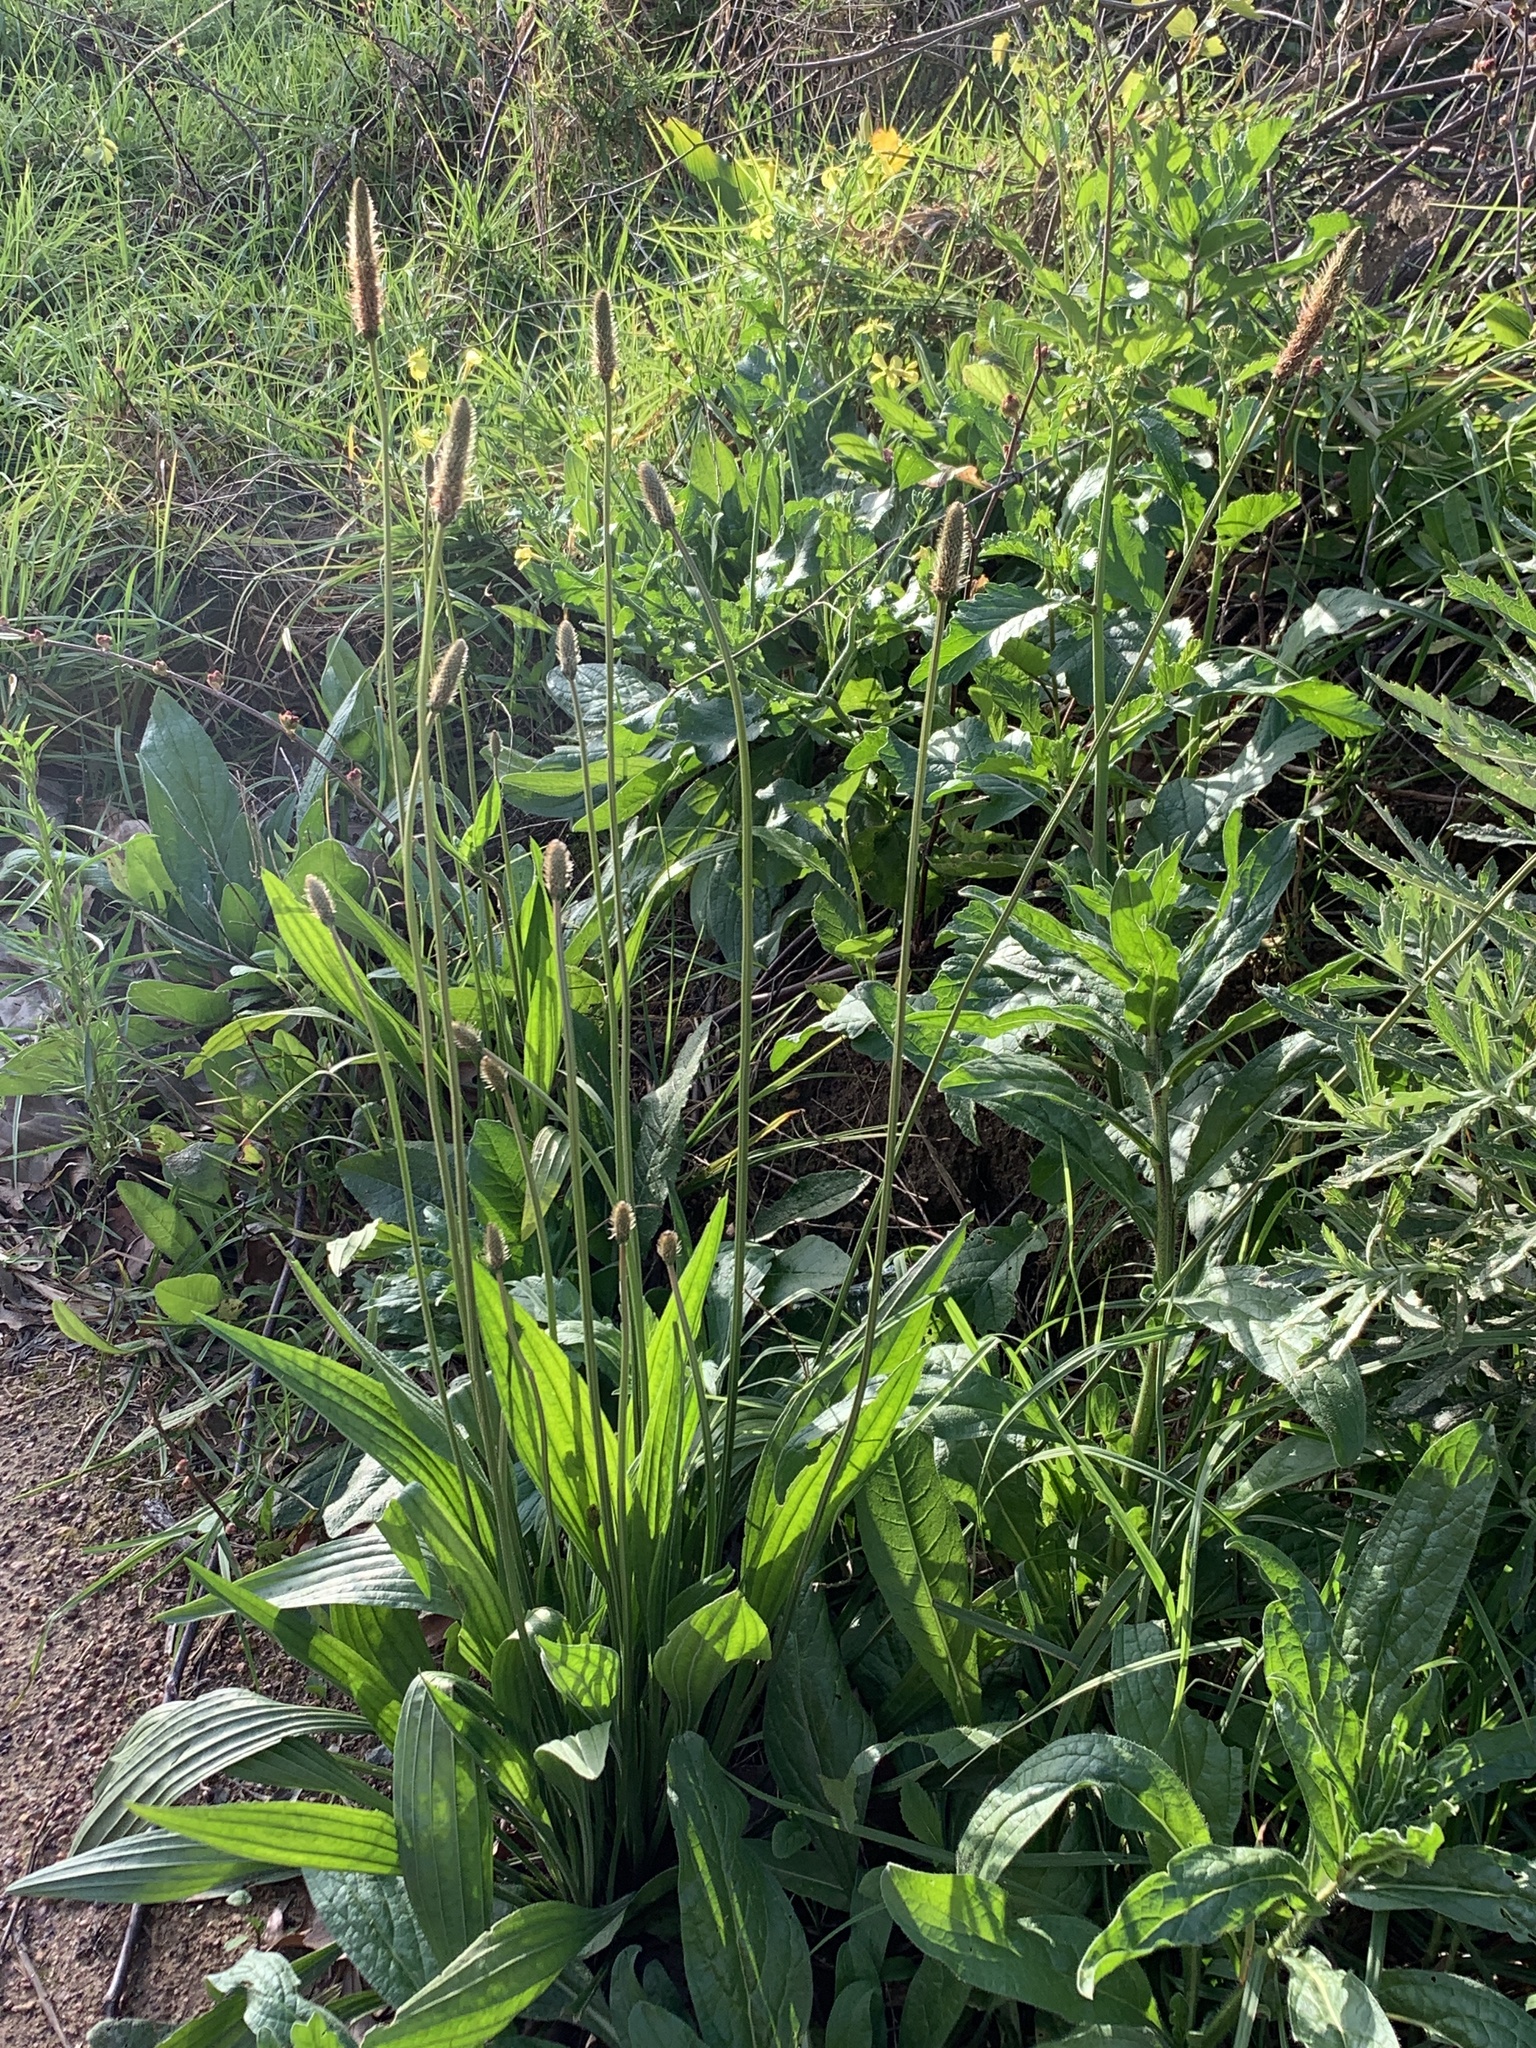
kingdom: Plantae
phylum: Tracheophyta
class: Magnoliopsida
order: Lamiales
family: Plantaginaceae
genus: Plantago
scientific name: Plantago lanceolata
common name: Ribwort plantain
